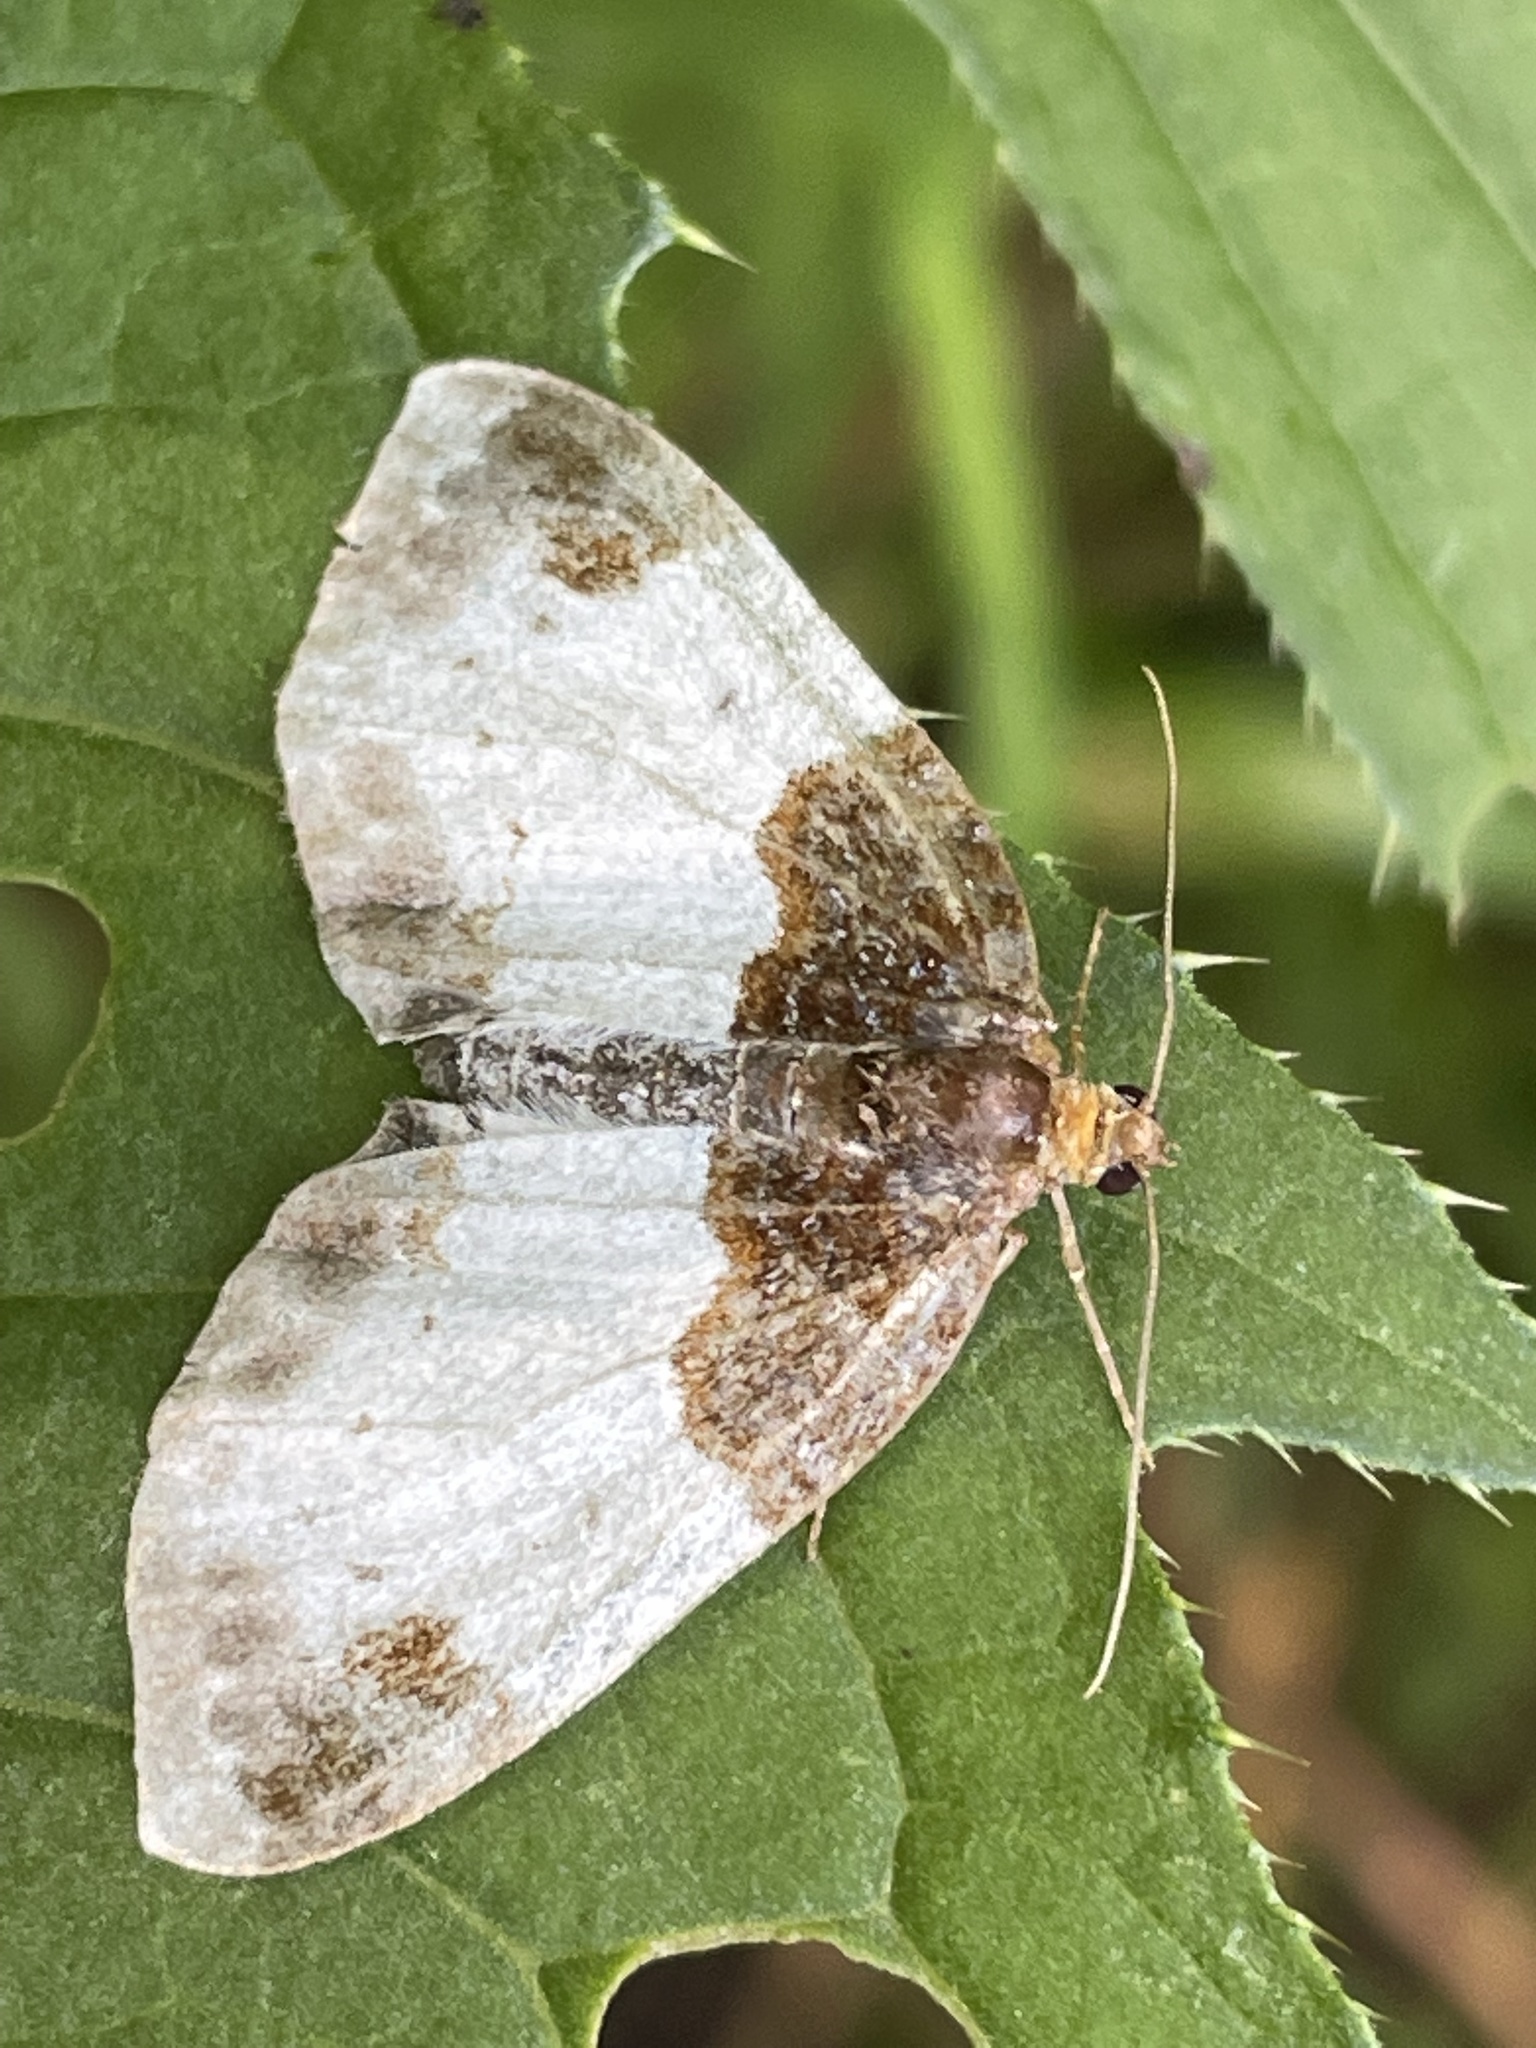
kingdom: Animalia
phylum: Arthropoda
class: Insecta
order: Lepidoptera
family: Geometridae
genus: Mesoleuca
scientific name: Mesoleuca albicillata
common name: Beautiful carpet
